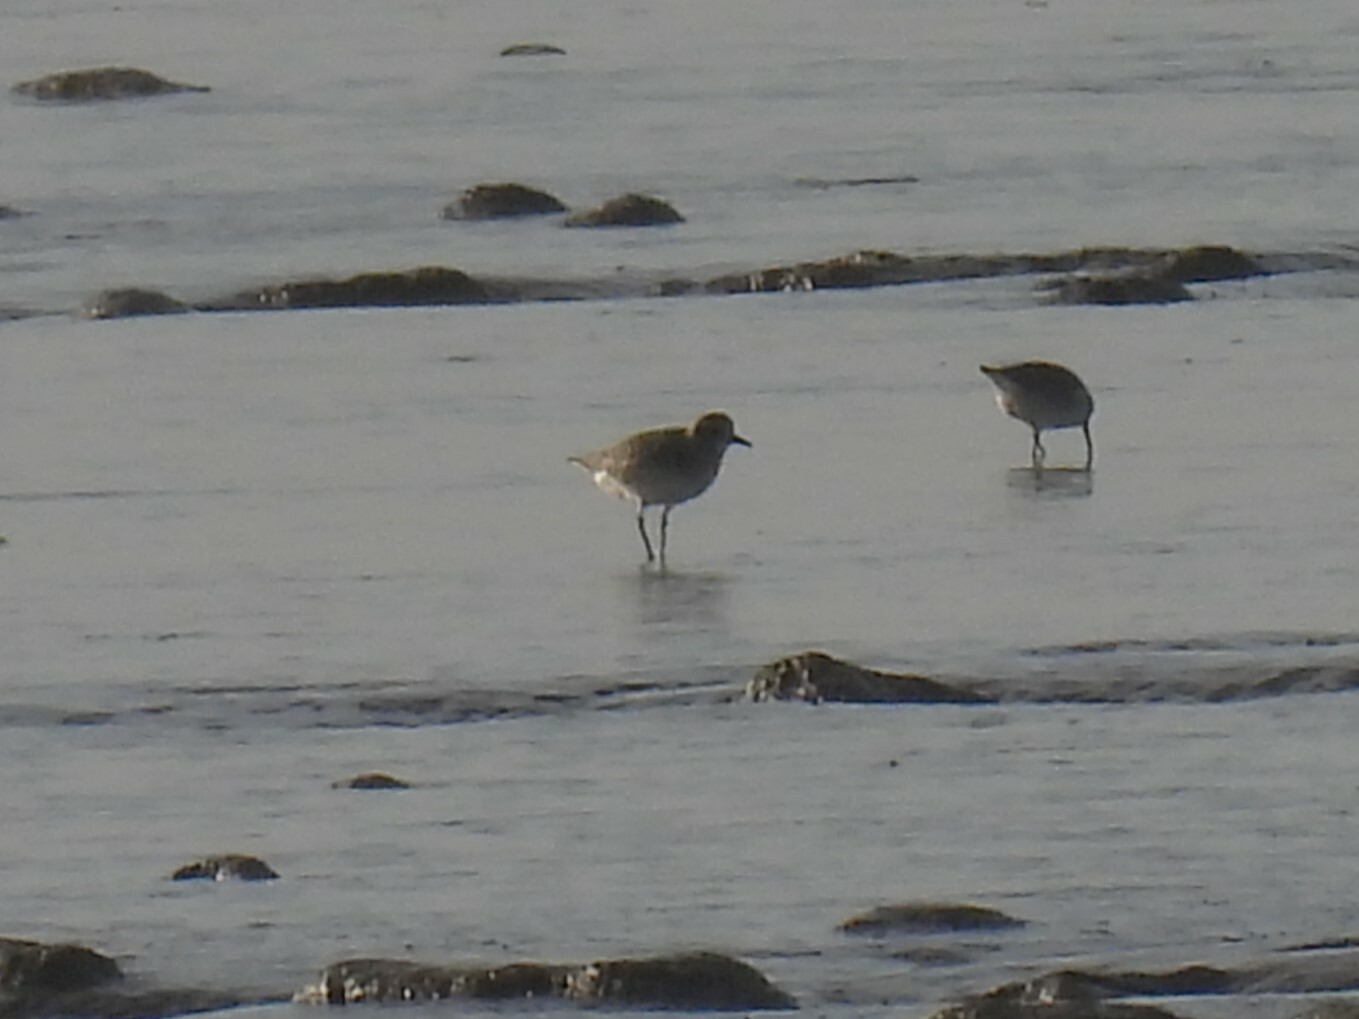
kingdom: Animalia
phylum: Chordata
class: Aves
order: Charadriiformes
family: Charadriidae
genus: Pluvialis
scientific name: Pluvialis squatarola
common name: Grey plover
